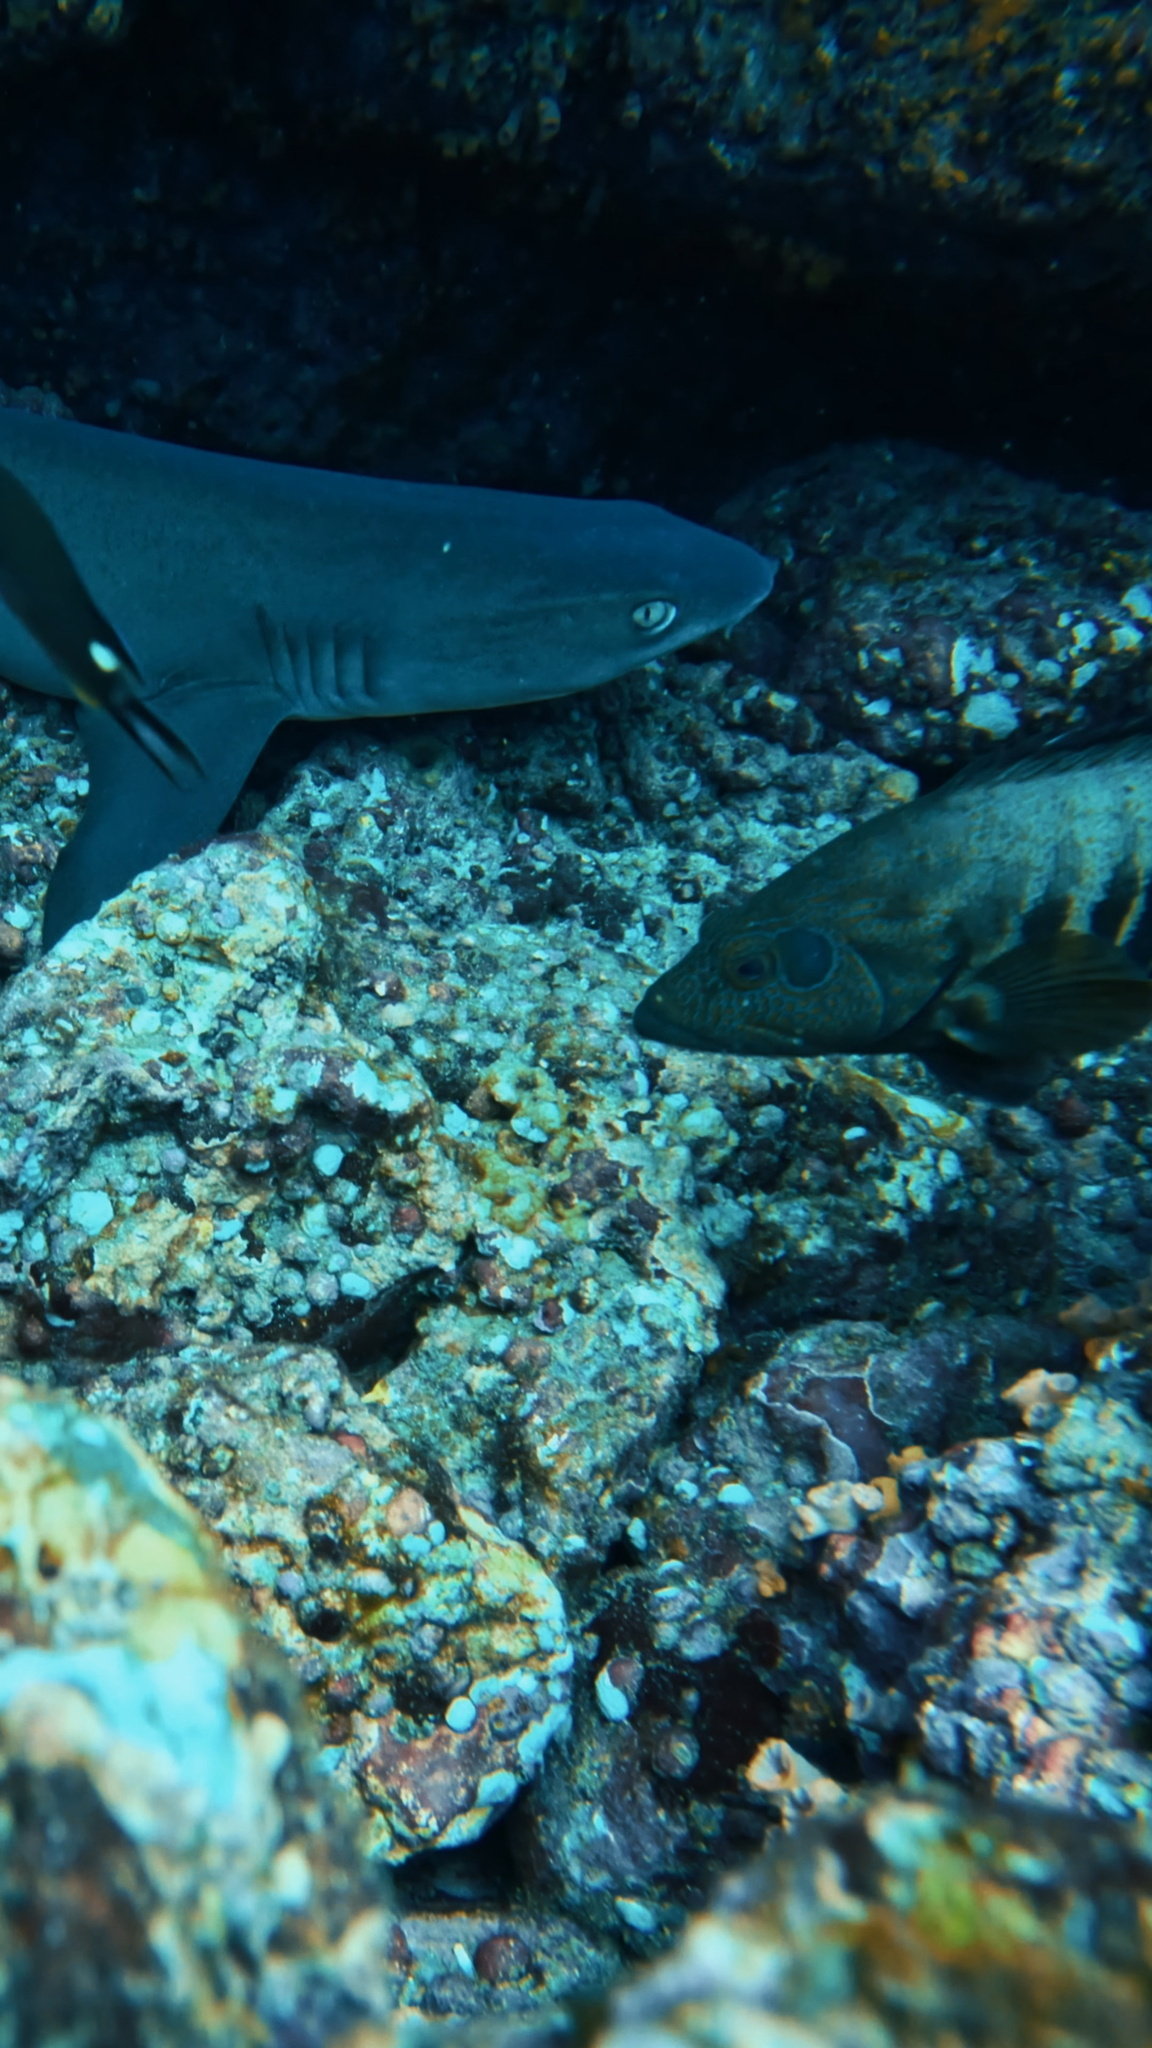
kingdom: Animalia
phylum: Chordata
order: Perciformes
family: Serranidae
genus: Cephalopholis
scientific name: Cephalopholis panamensis
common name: Pacific graysby
